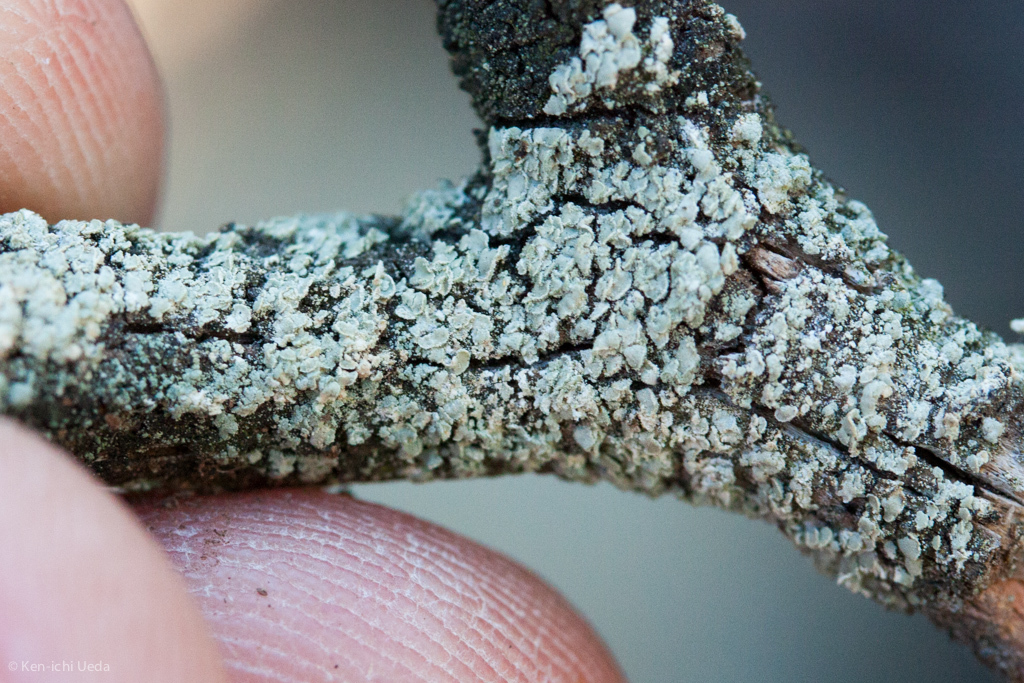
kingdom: Fungi
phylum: Ascomycota
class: Lecanoromycetes
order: Lecanorales
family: Carbonicolaceae
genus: Carbonicola
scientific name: Carbonicola myrmecina
